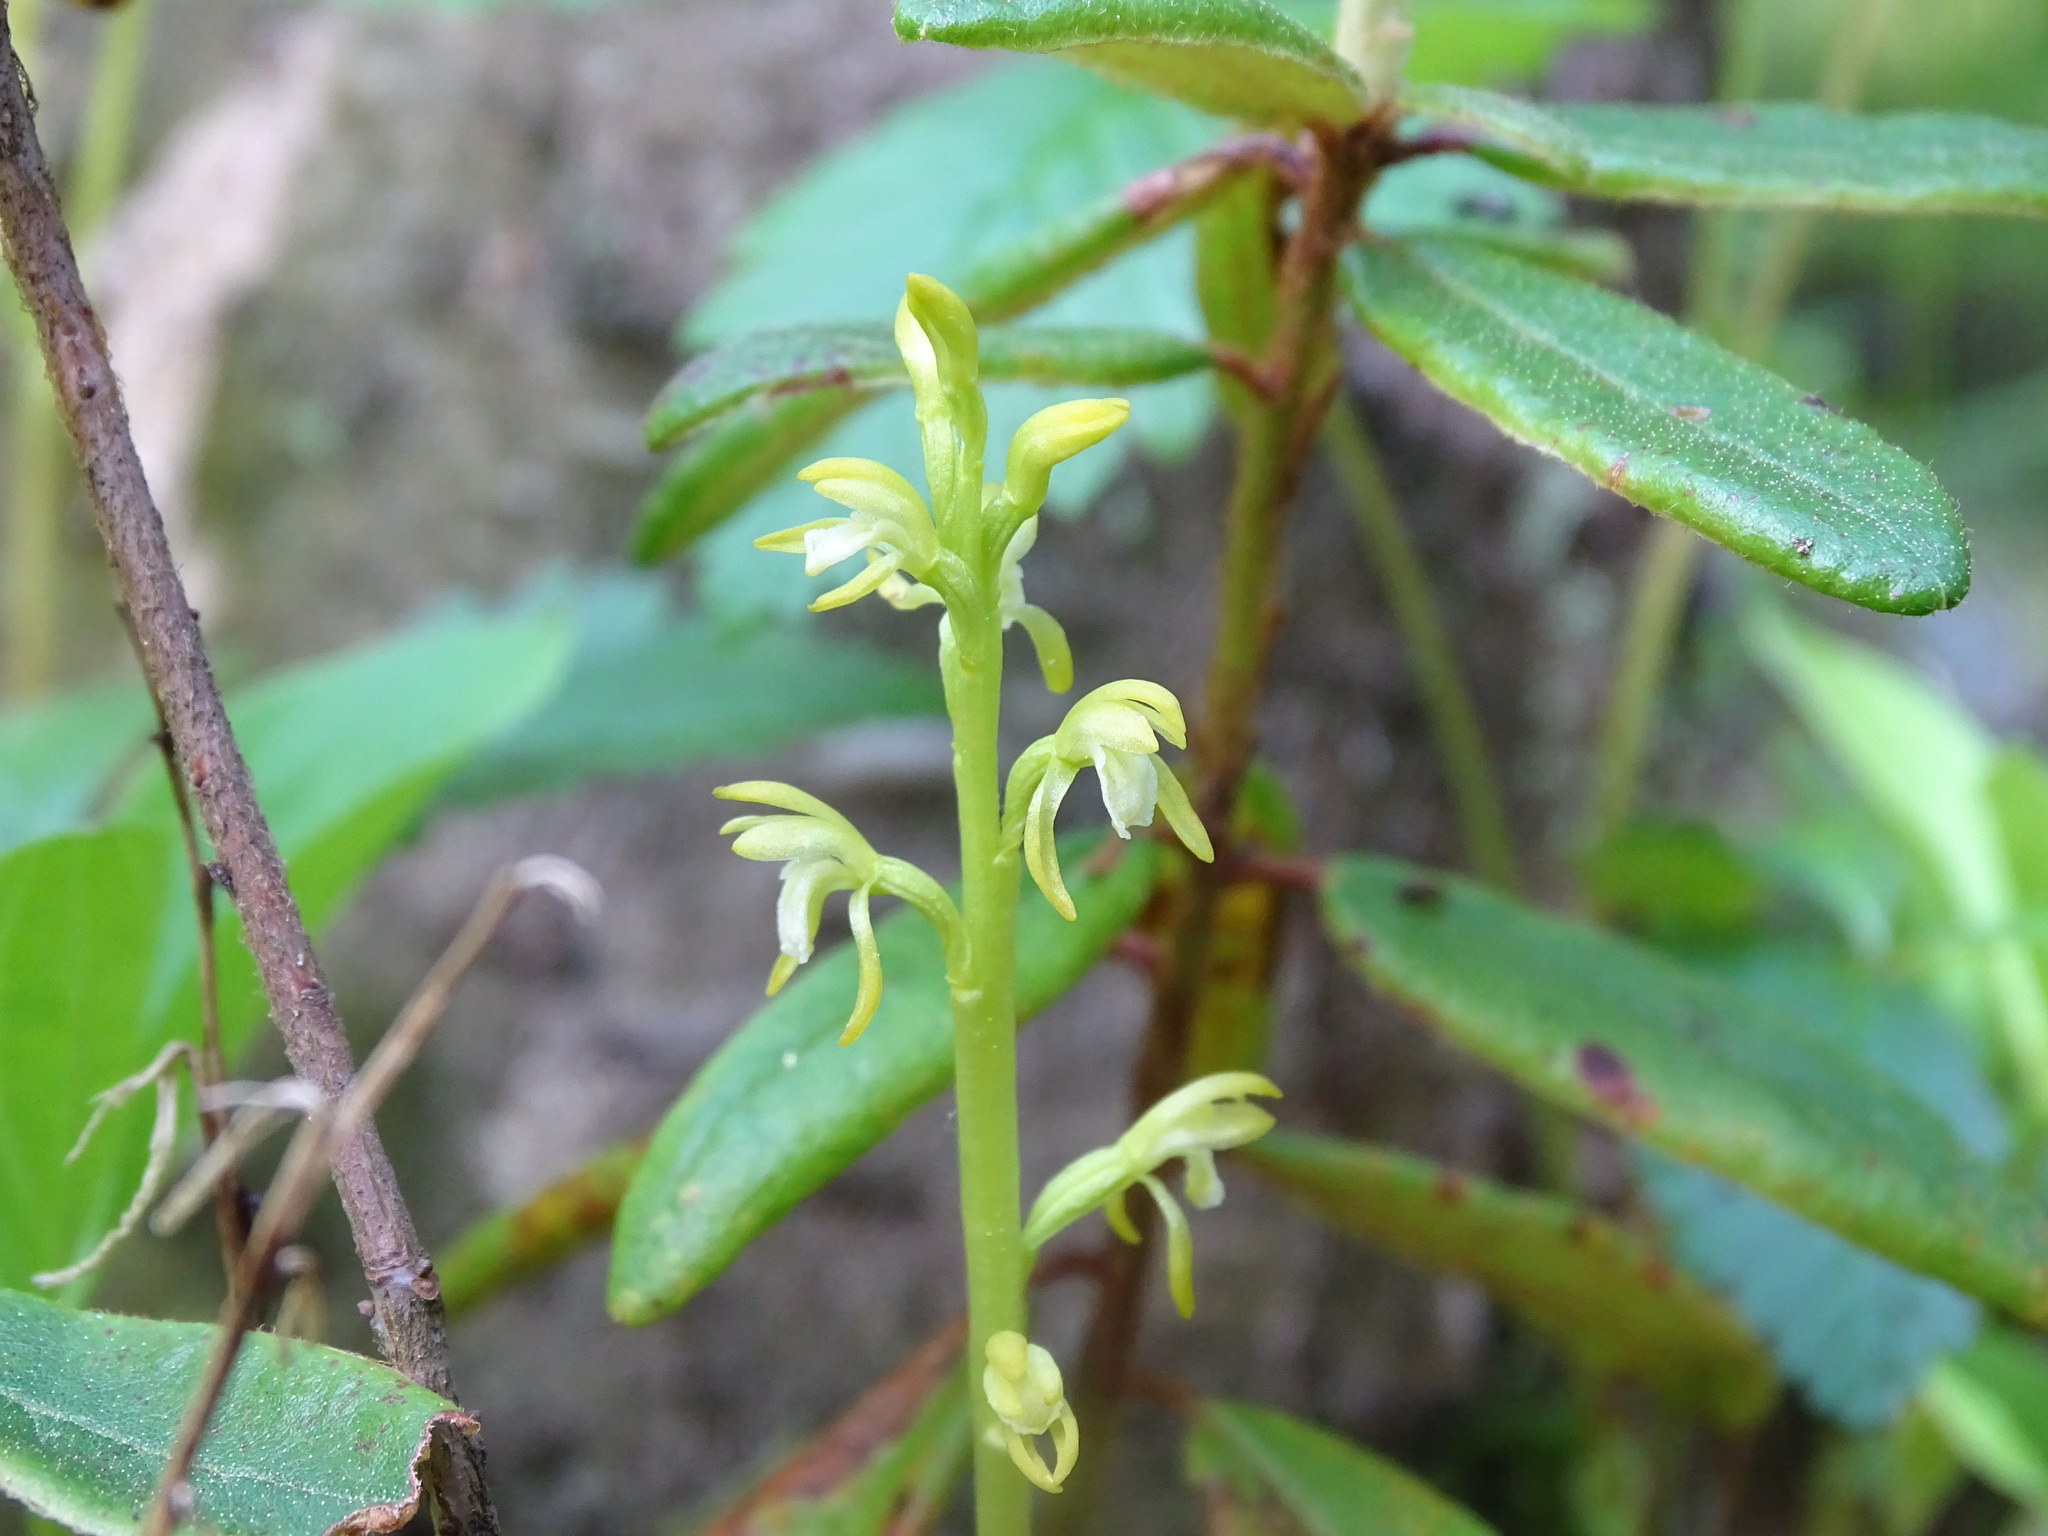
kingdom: Plantae
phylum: Tracheophyta
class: Liliopsida
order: Asparagales
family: Orchidaceae
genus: Corallorhiza
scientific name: Corallorhiza trifida
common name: Yellow coralroot
